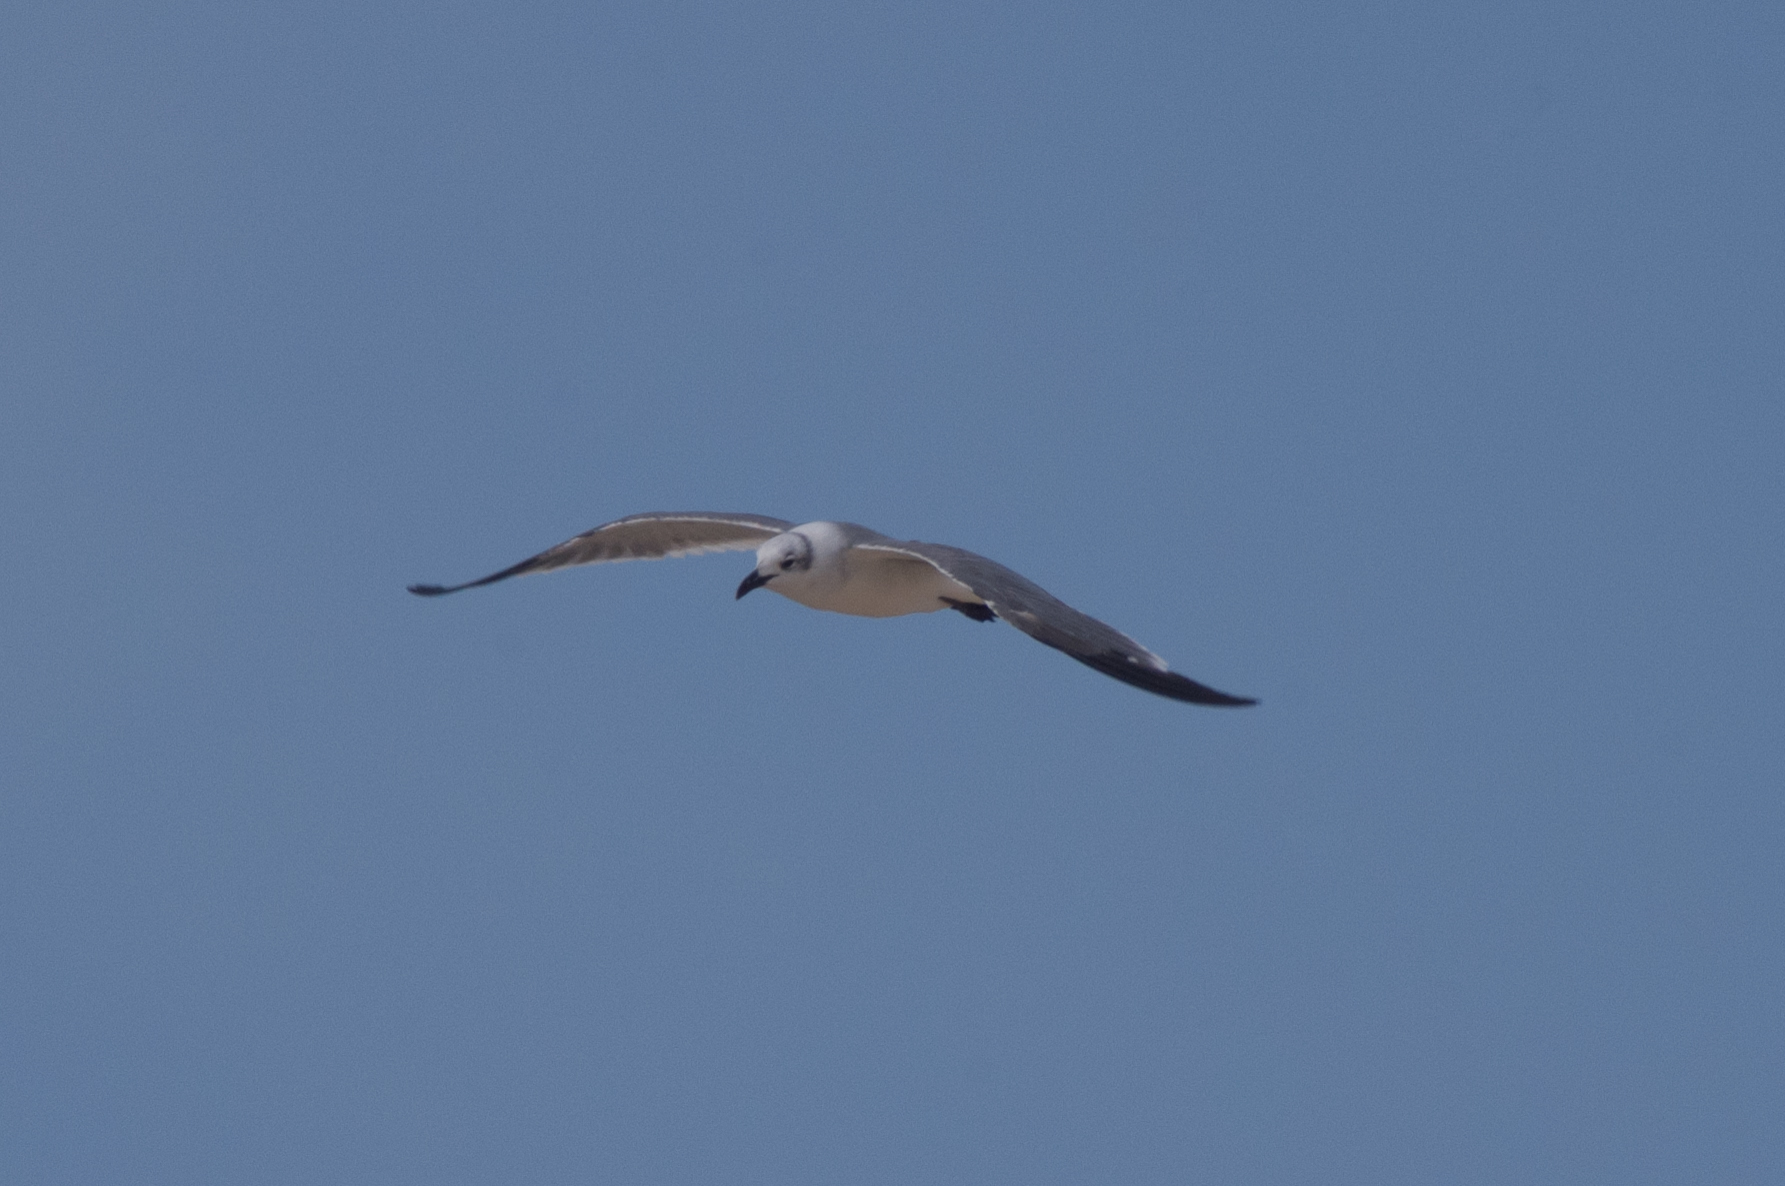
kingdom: Animalia
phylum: Chordata
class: Aves
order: Charadriiformes
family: Laridae
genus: Leucophaeus
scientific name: Leucophaeus atricilla
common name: Laughing gull
